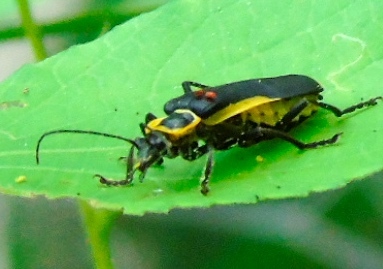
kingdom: Animalia
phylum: Arthropoda
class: Insecta
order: Coleoptera
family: Cantharidae
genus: Chauliognathus
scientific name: Chauliognathus
